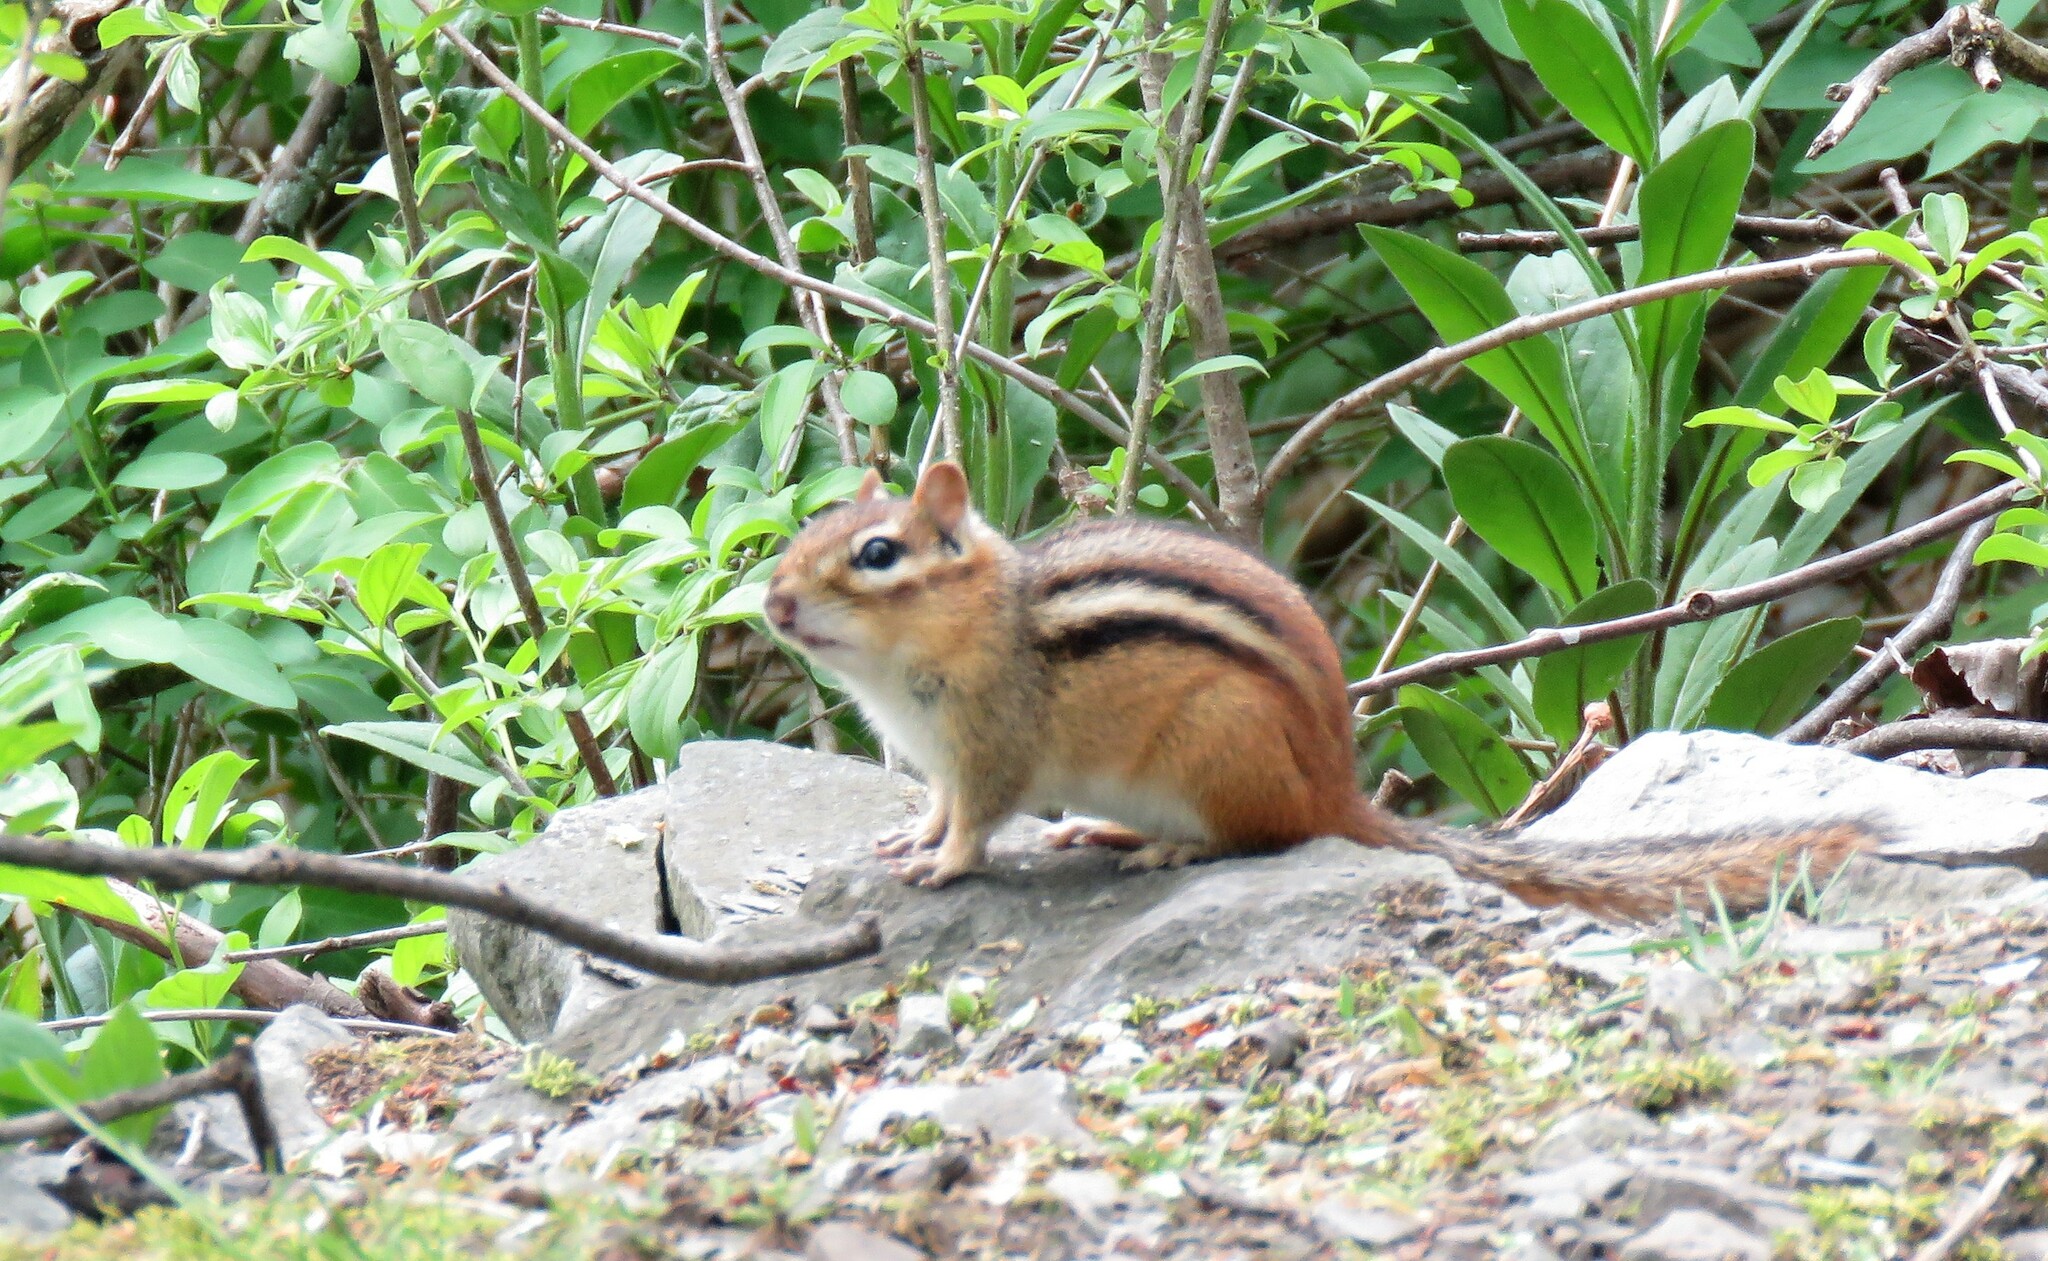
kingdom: Animalia
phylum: Chordata
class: Mammalia
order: Rodentia
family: Sciuridae
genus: Tamias
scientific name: Tamias striatus
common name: Eastern chipmunk
